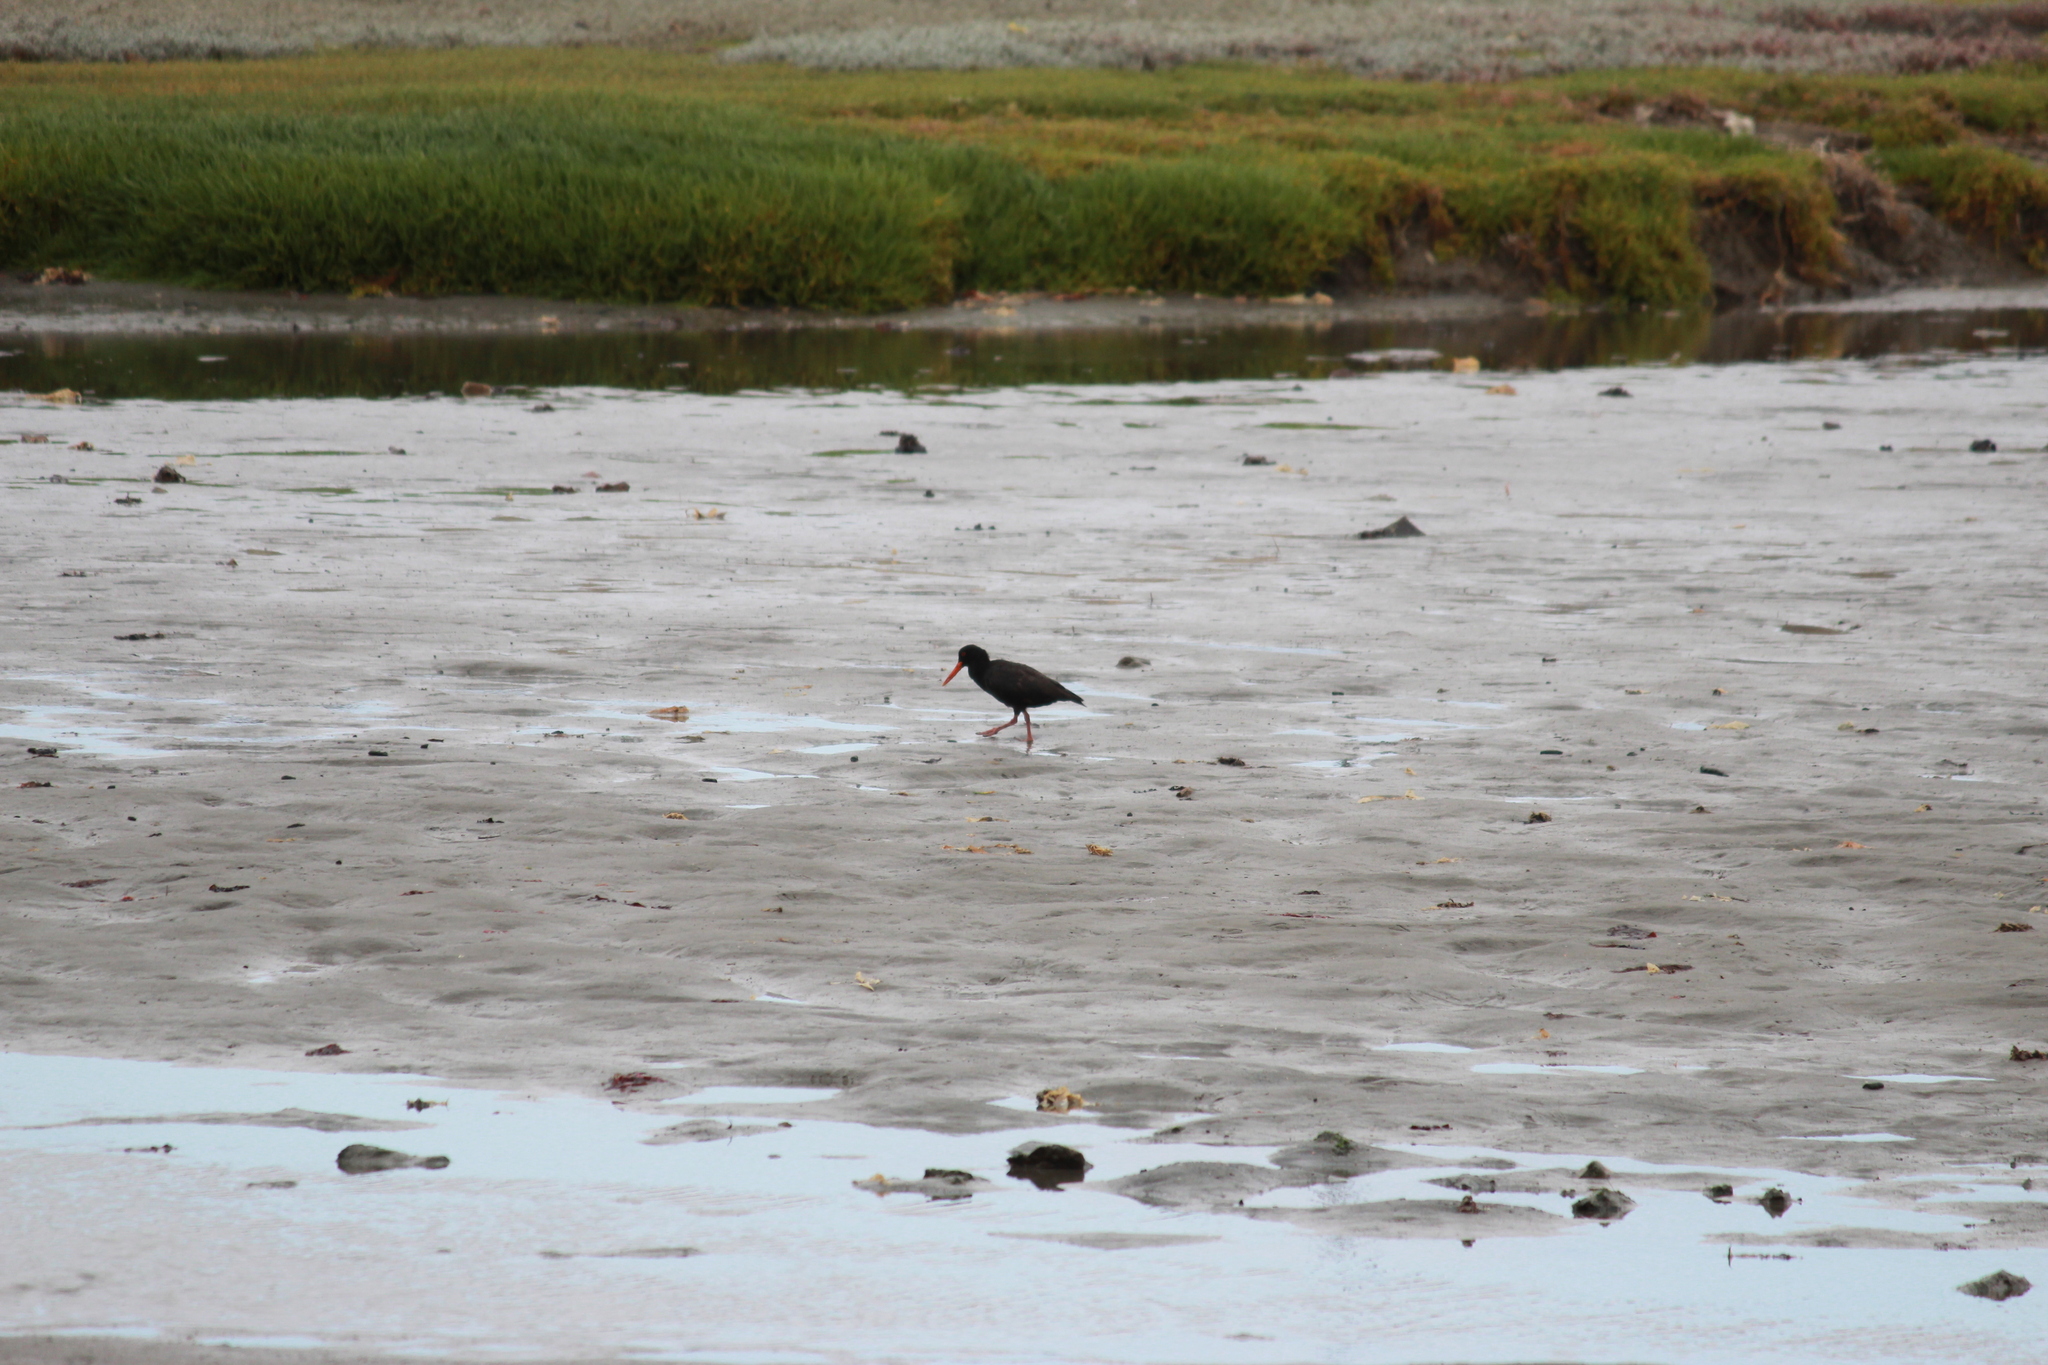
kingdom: Animalia
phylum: Chordata
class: Aves
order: Charadriiformes
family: Haematopodidae
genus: Haematopus
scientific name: Haematopus moquini
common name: African oystercatcher
